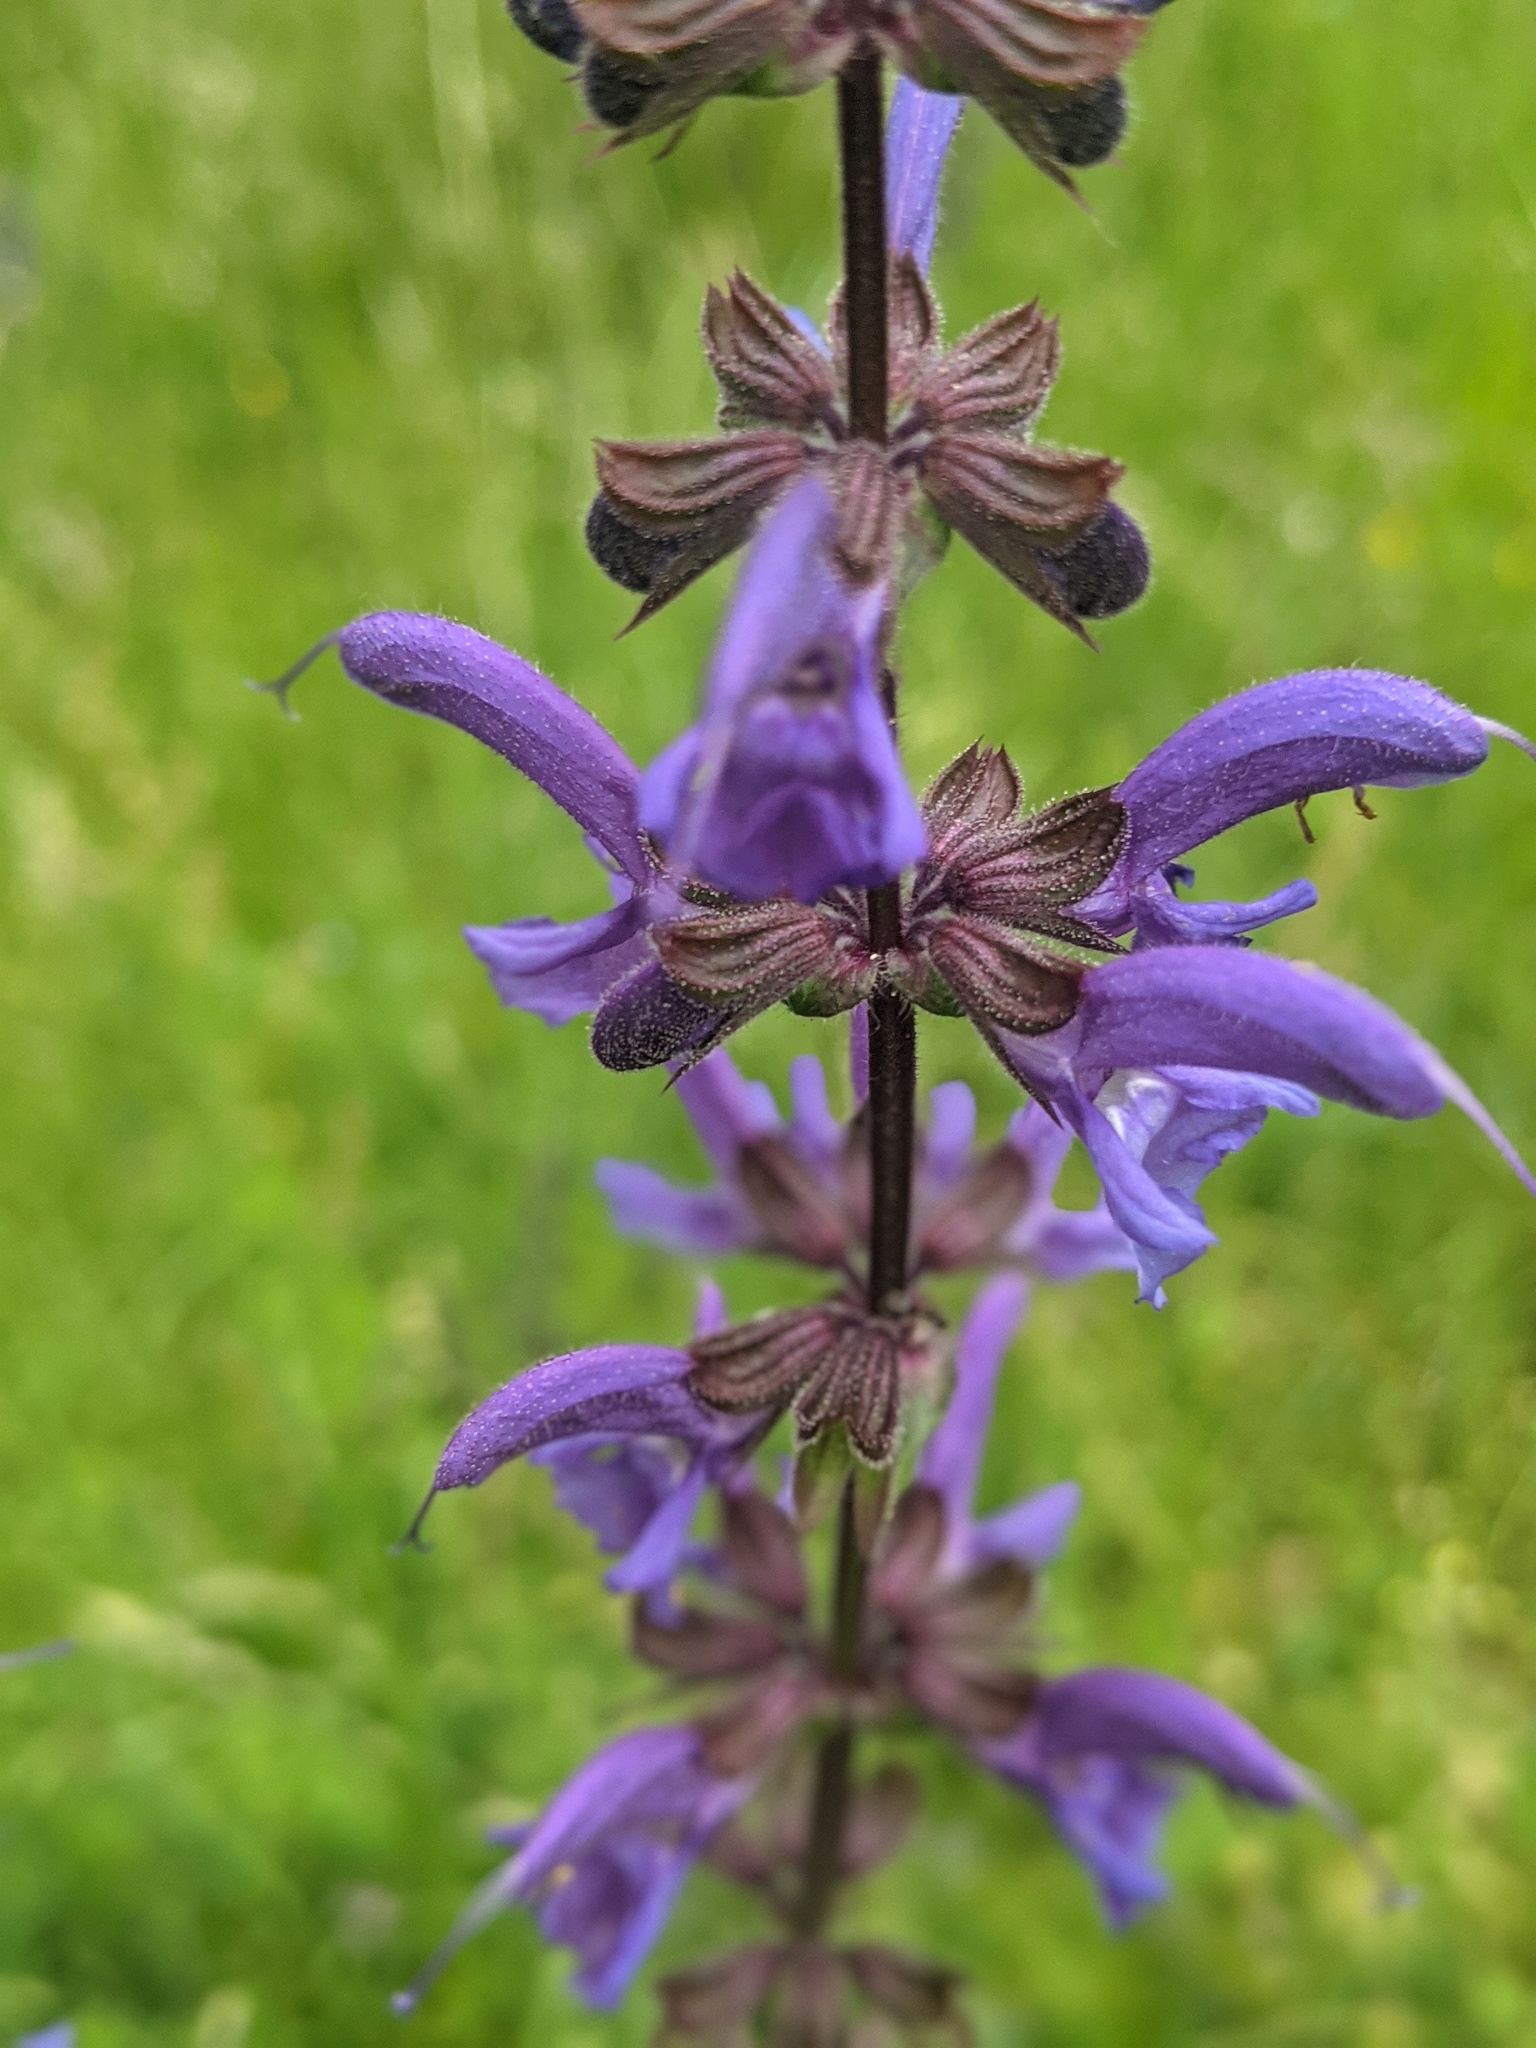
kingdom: Plantae
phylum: Tracheophyta
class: Magnoliopsida
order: Lamiales
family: Lamiaceae
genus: Salvia
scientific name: Salvia pratensis
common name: Meadow sage
